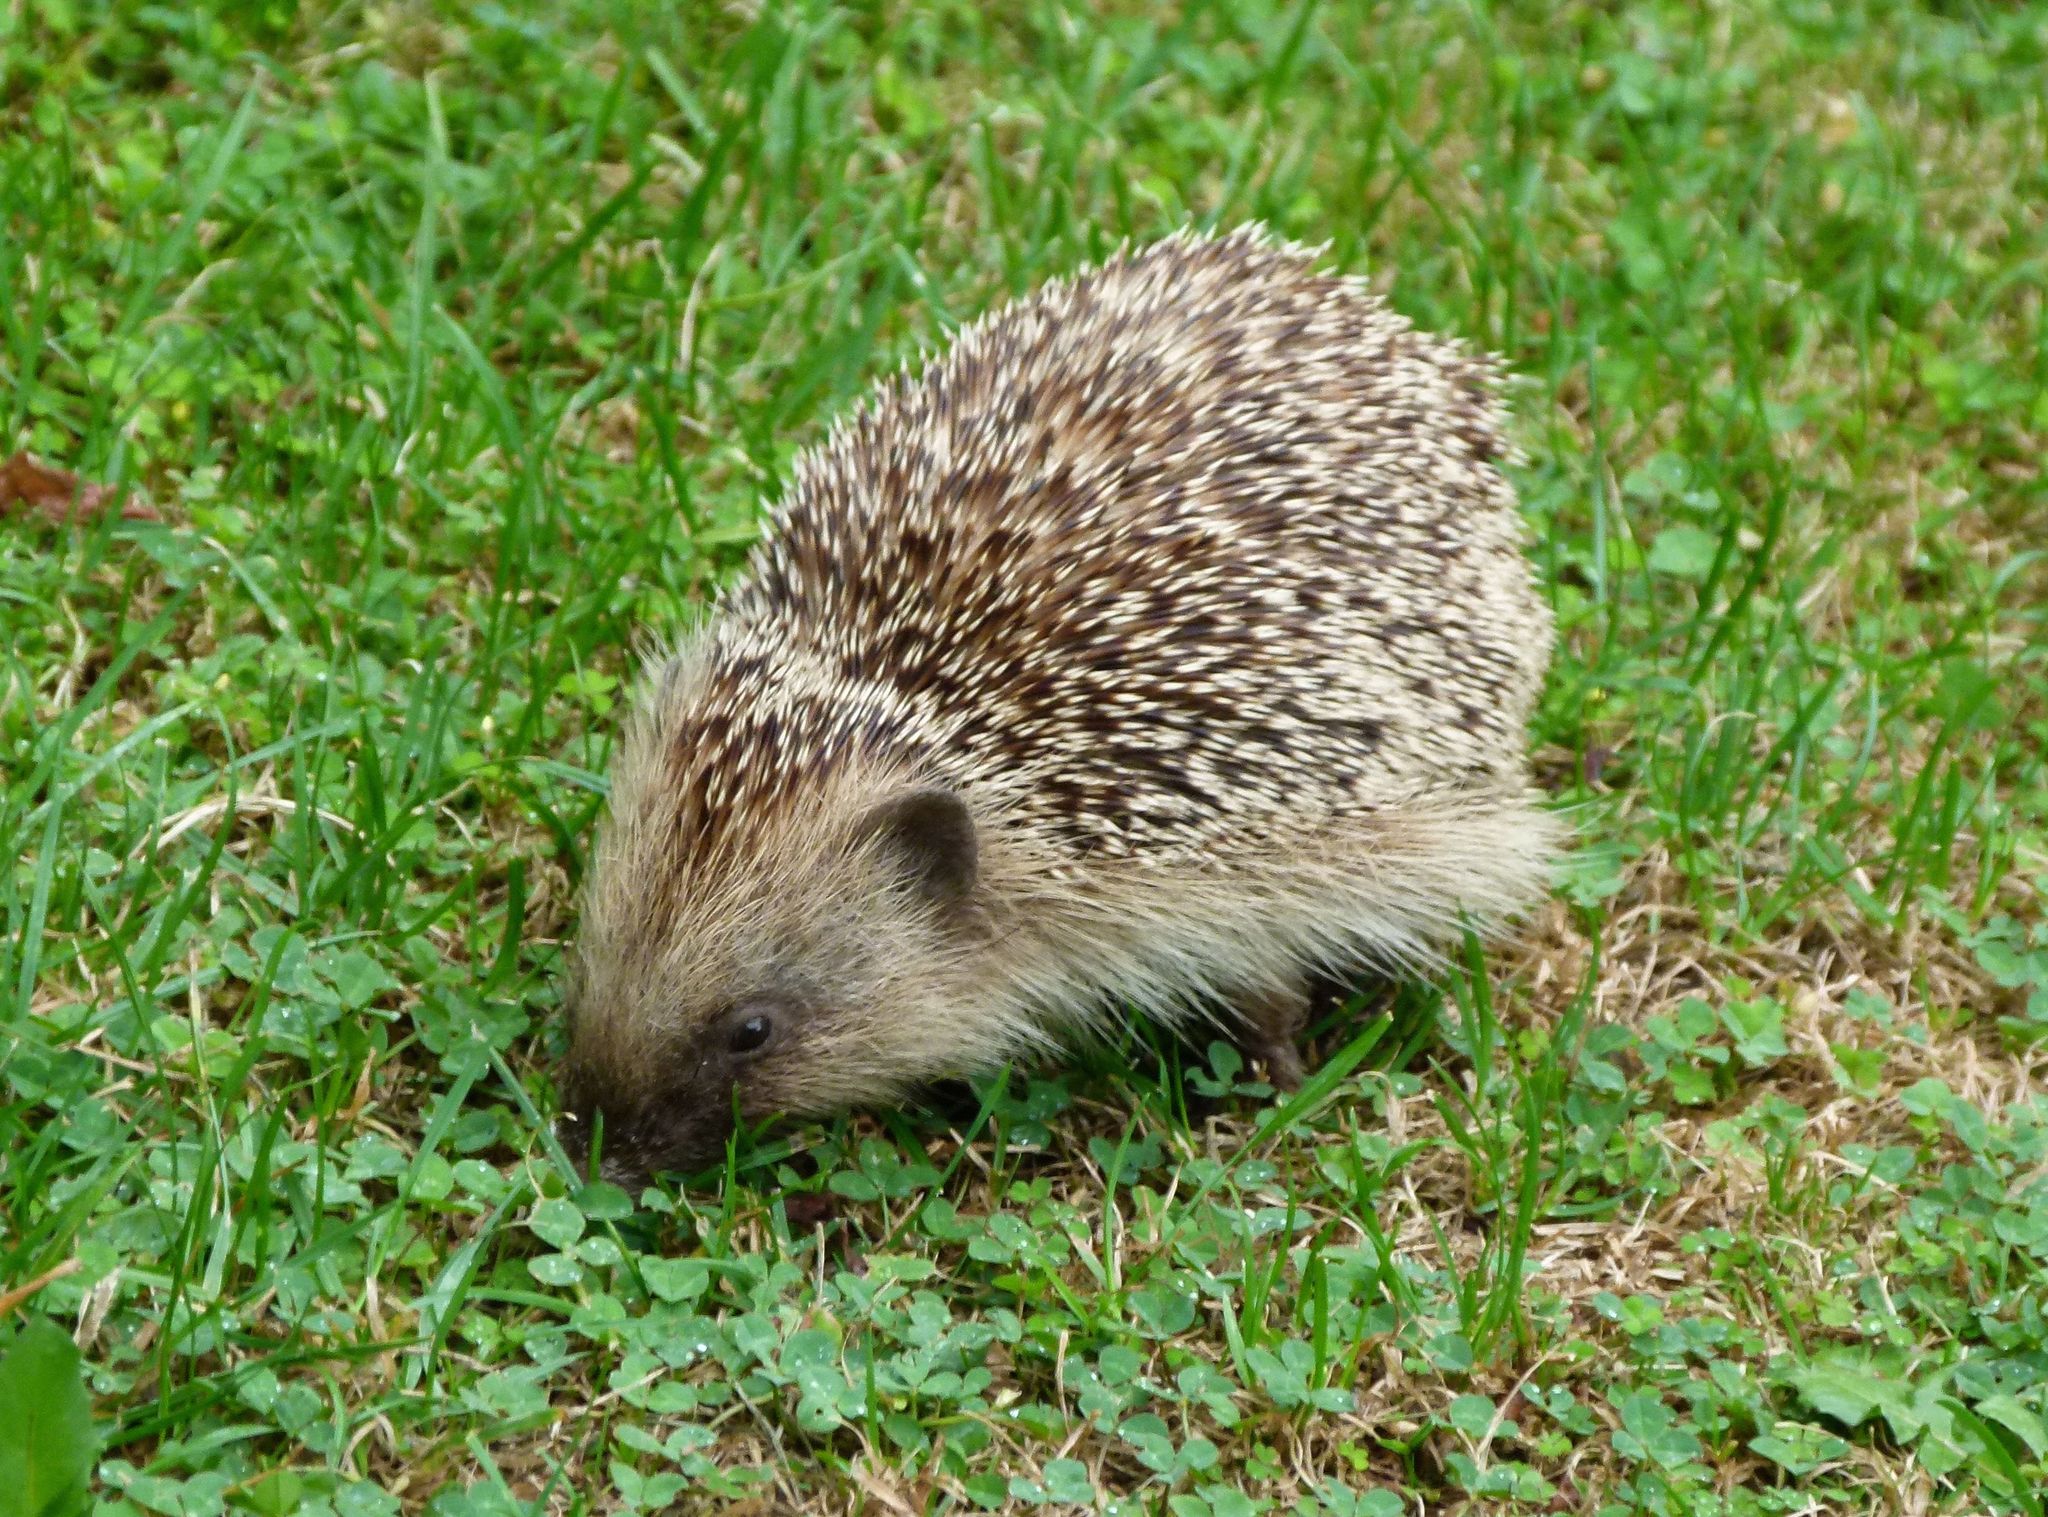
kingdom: Animalia
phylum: Chordata
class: Mammalia
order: Erinaceomorpha
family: Erinaceidae
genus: Erinaceus
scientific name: Erinaceus europaeus
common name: West european hedgehog
